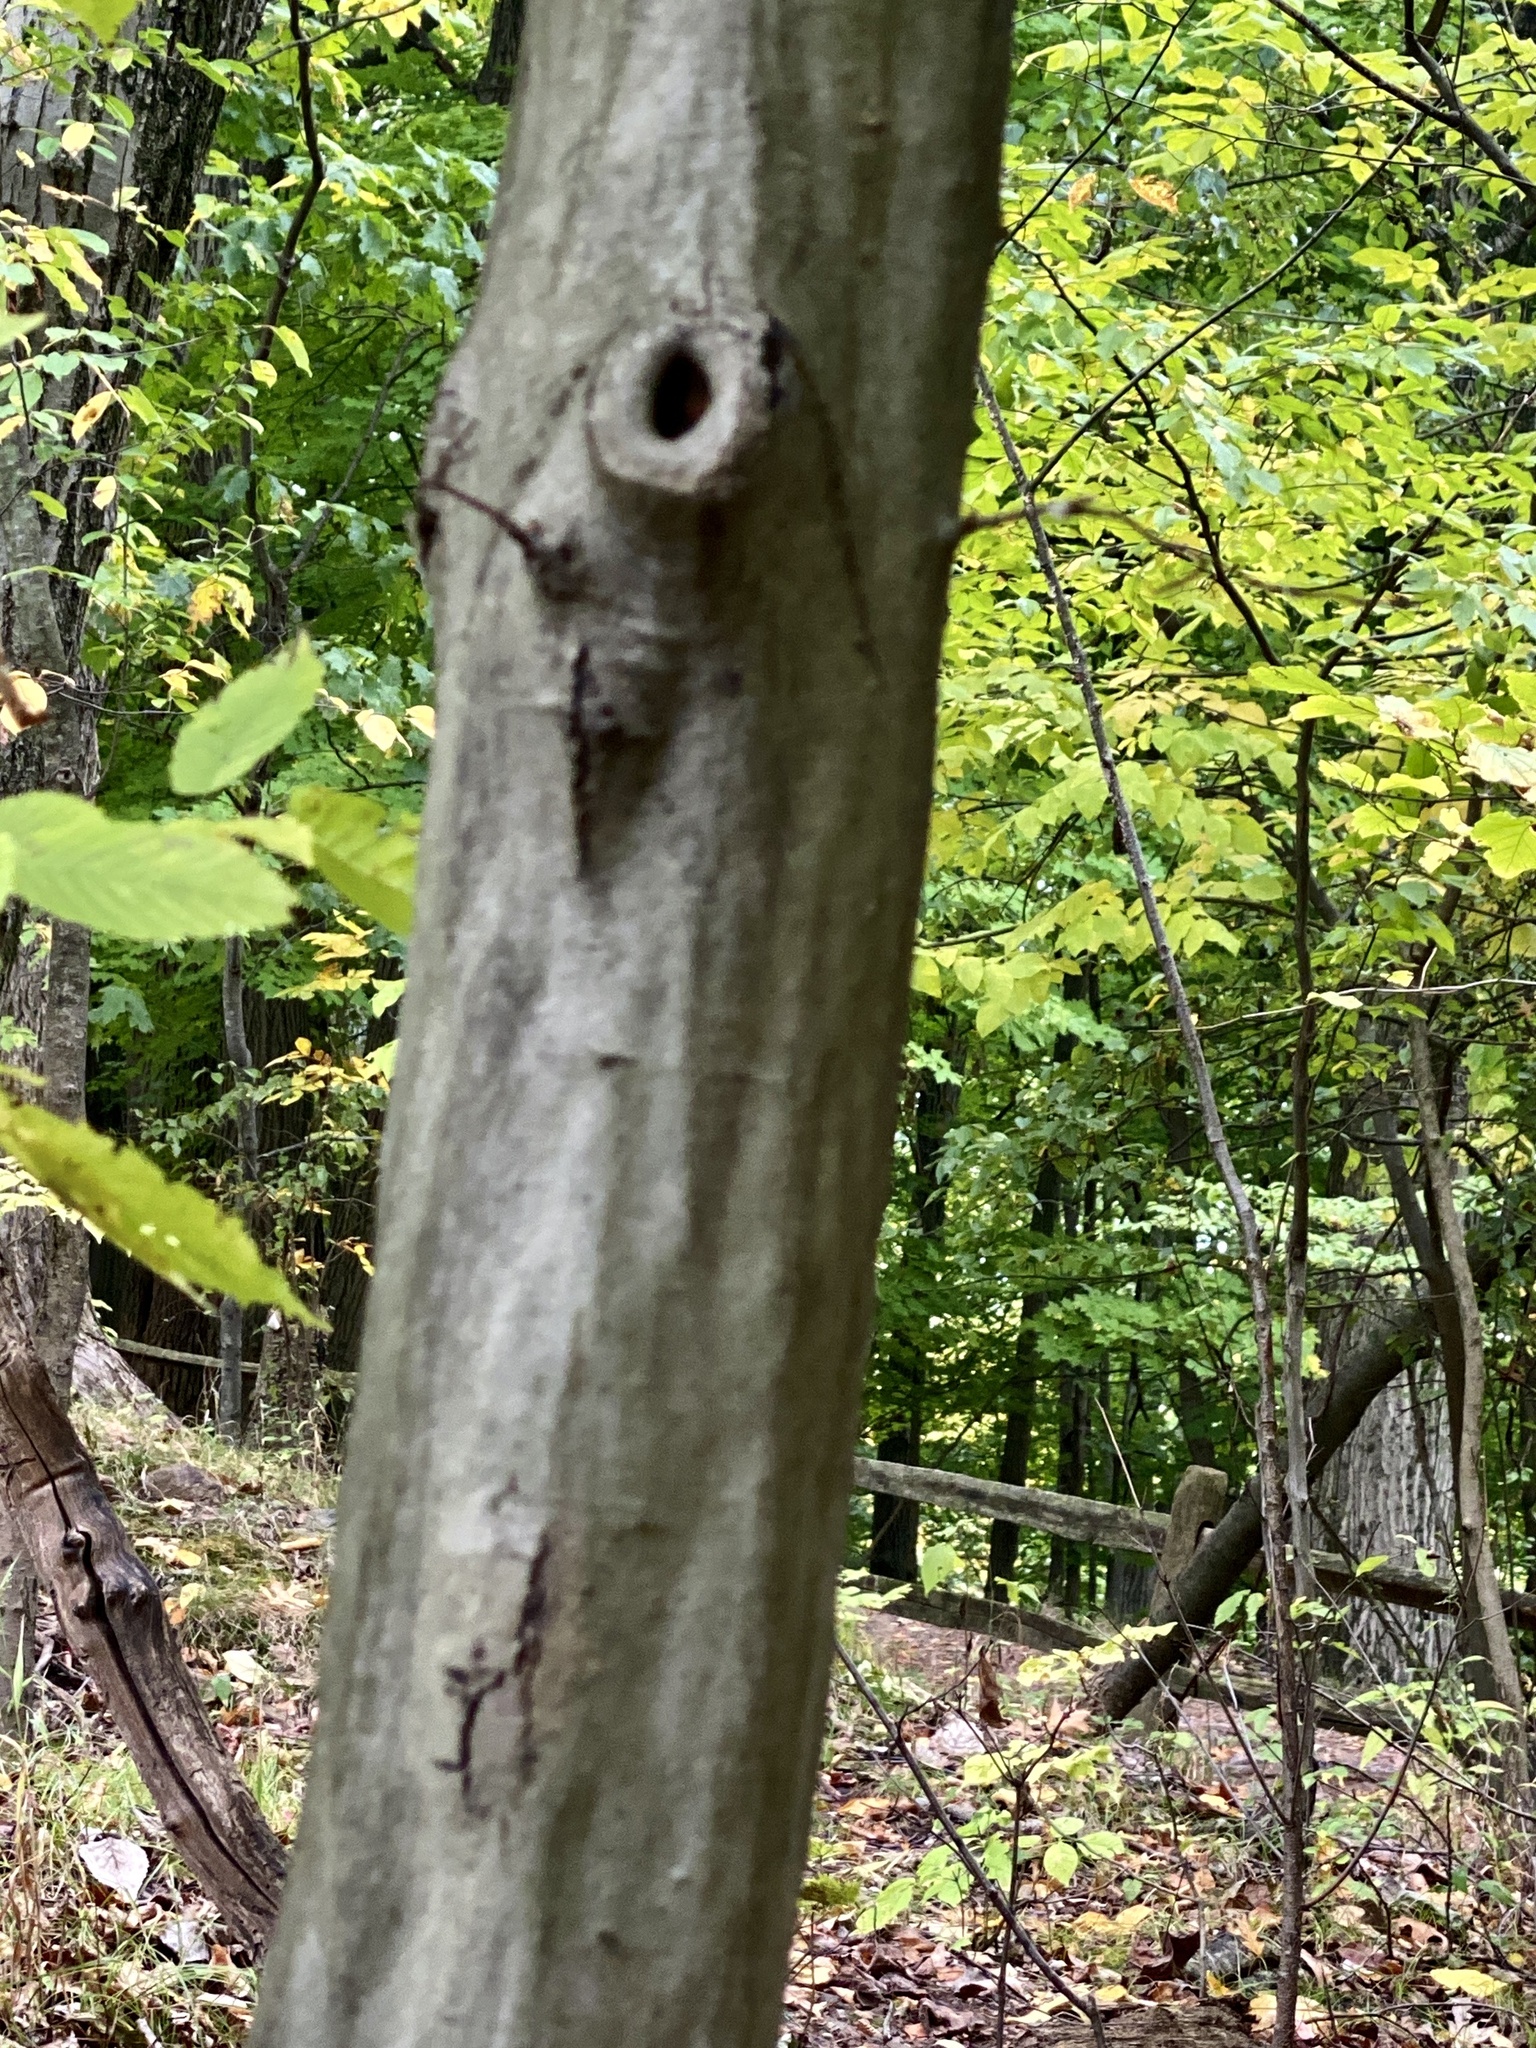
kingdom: Plantae
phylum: Tracheophyta
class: Magnoliopsida
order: Fagales
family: Betulaceae
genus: Carpinus
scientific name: Carpinus caroliniana
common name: American hornbeam
